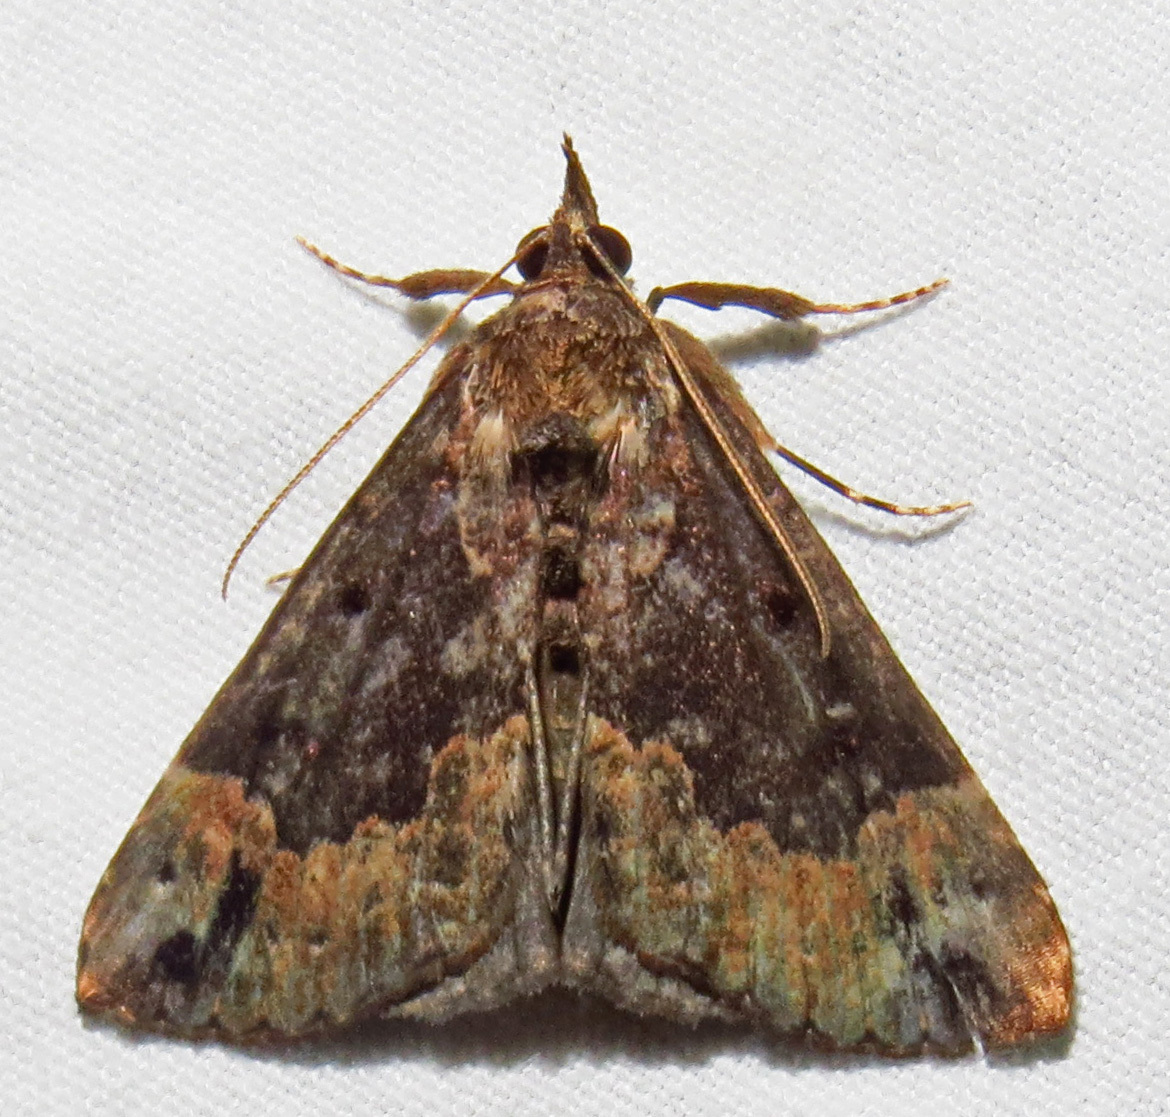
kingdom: Animalia
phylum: Arthropoda
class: Insecta
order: Lepidoptera
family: Erebidae
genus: Hypena
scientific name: Hypena baltimoralis
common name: Baltimore snout
